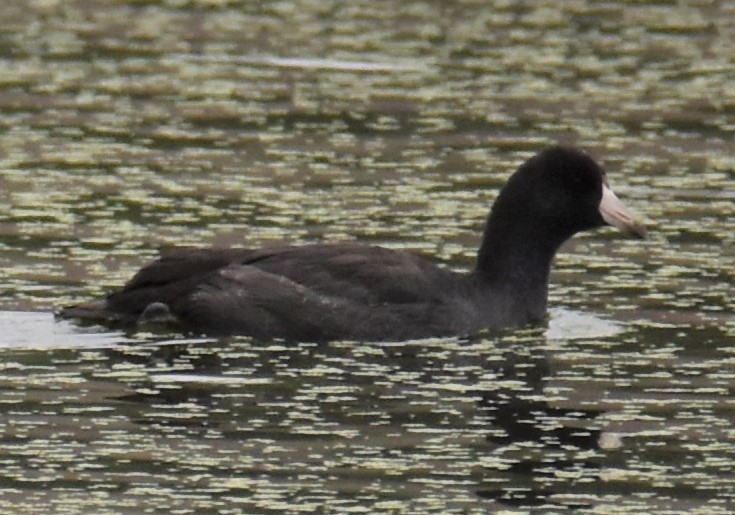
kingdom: Animalia
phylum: Chordata
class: Aves
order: Gruiformes
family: Rallidae
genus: Fulica
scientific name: Fulica americana
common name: American coot
